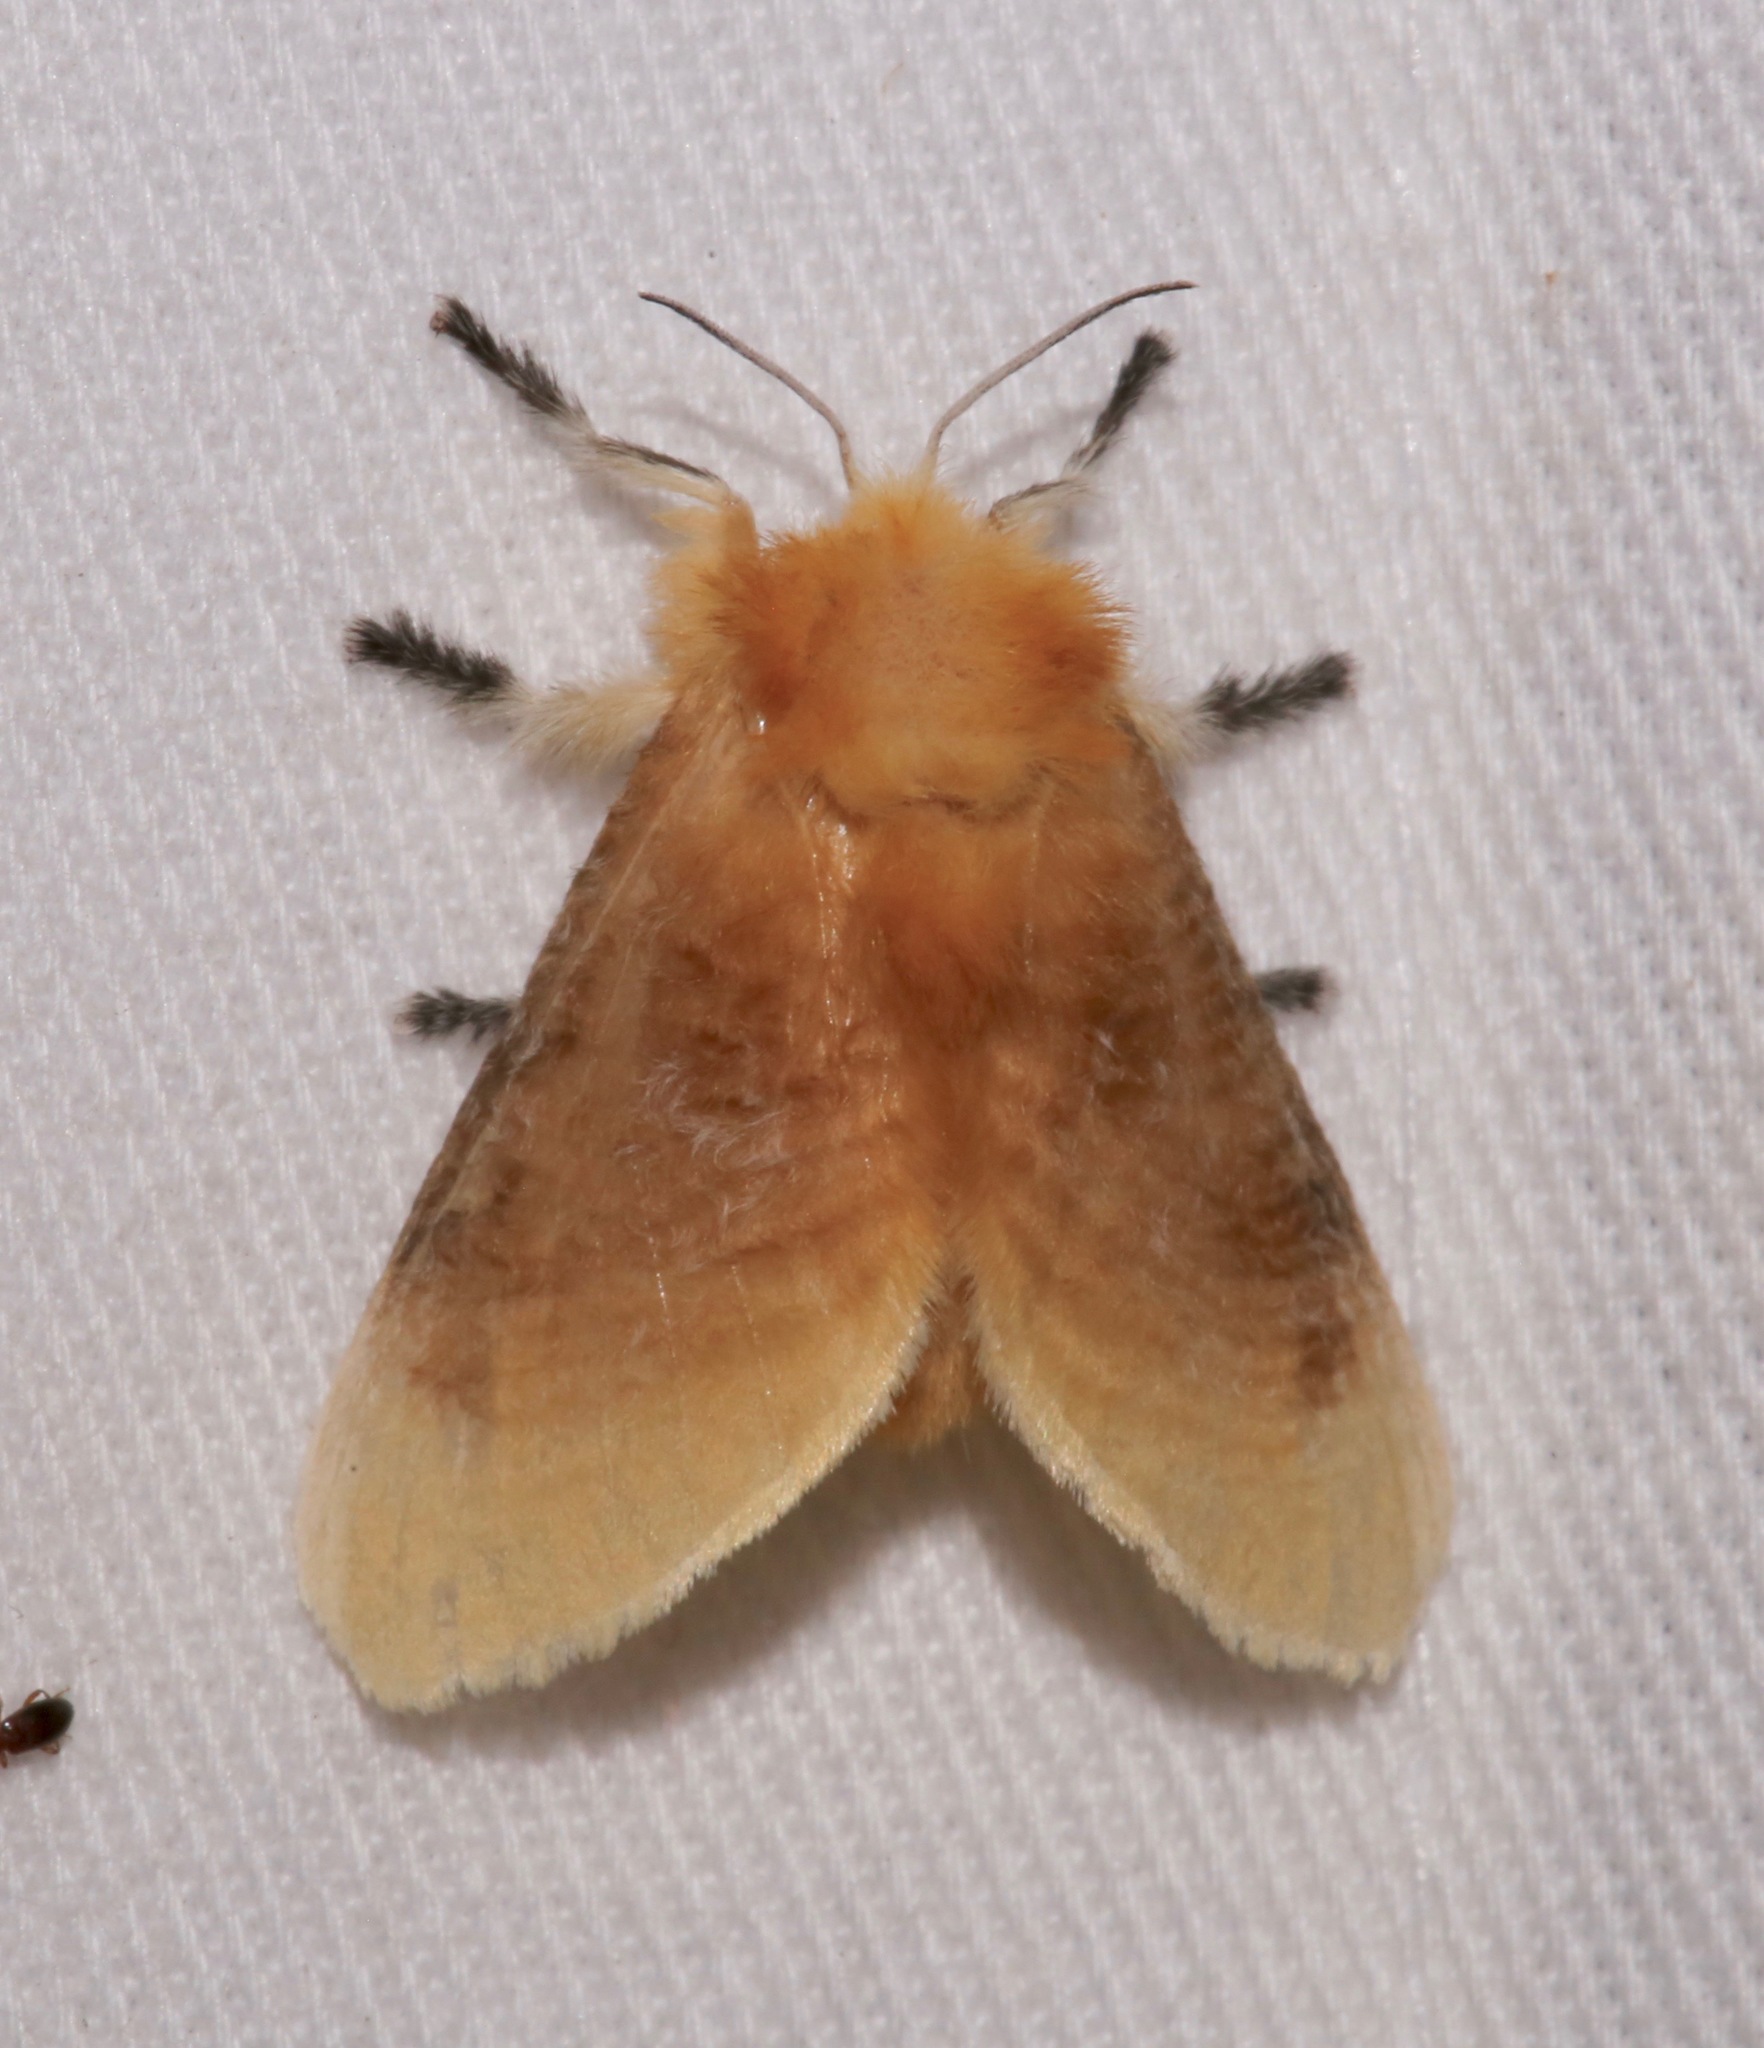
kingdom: Animalia
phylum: Arthropoda
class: Insecta
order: Lepidoptera
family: Megalopygidae
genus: Megalopyge
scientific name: Megalopyge opercularis
